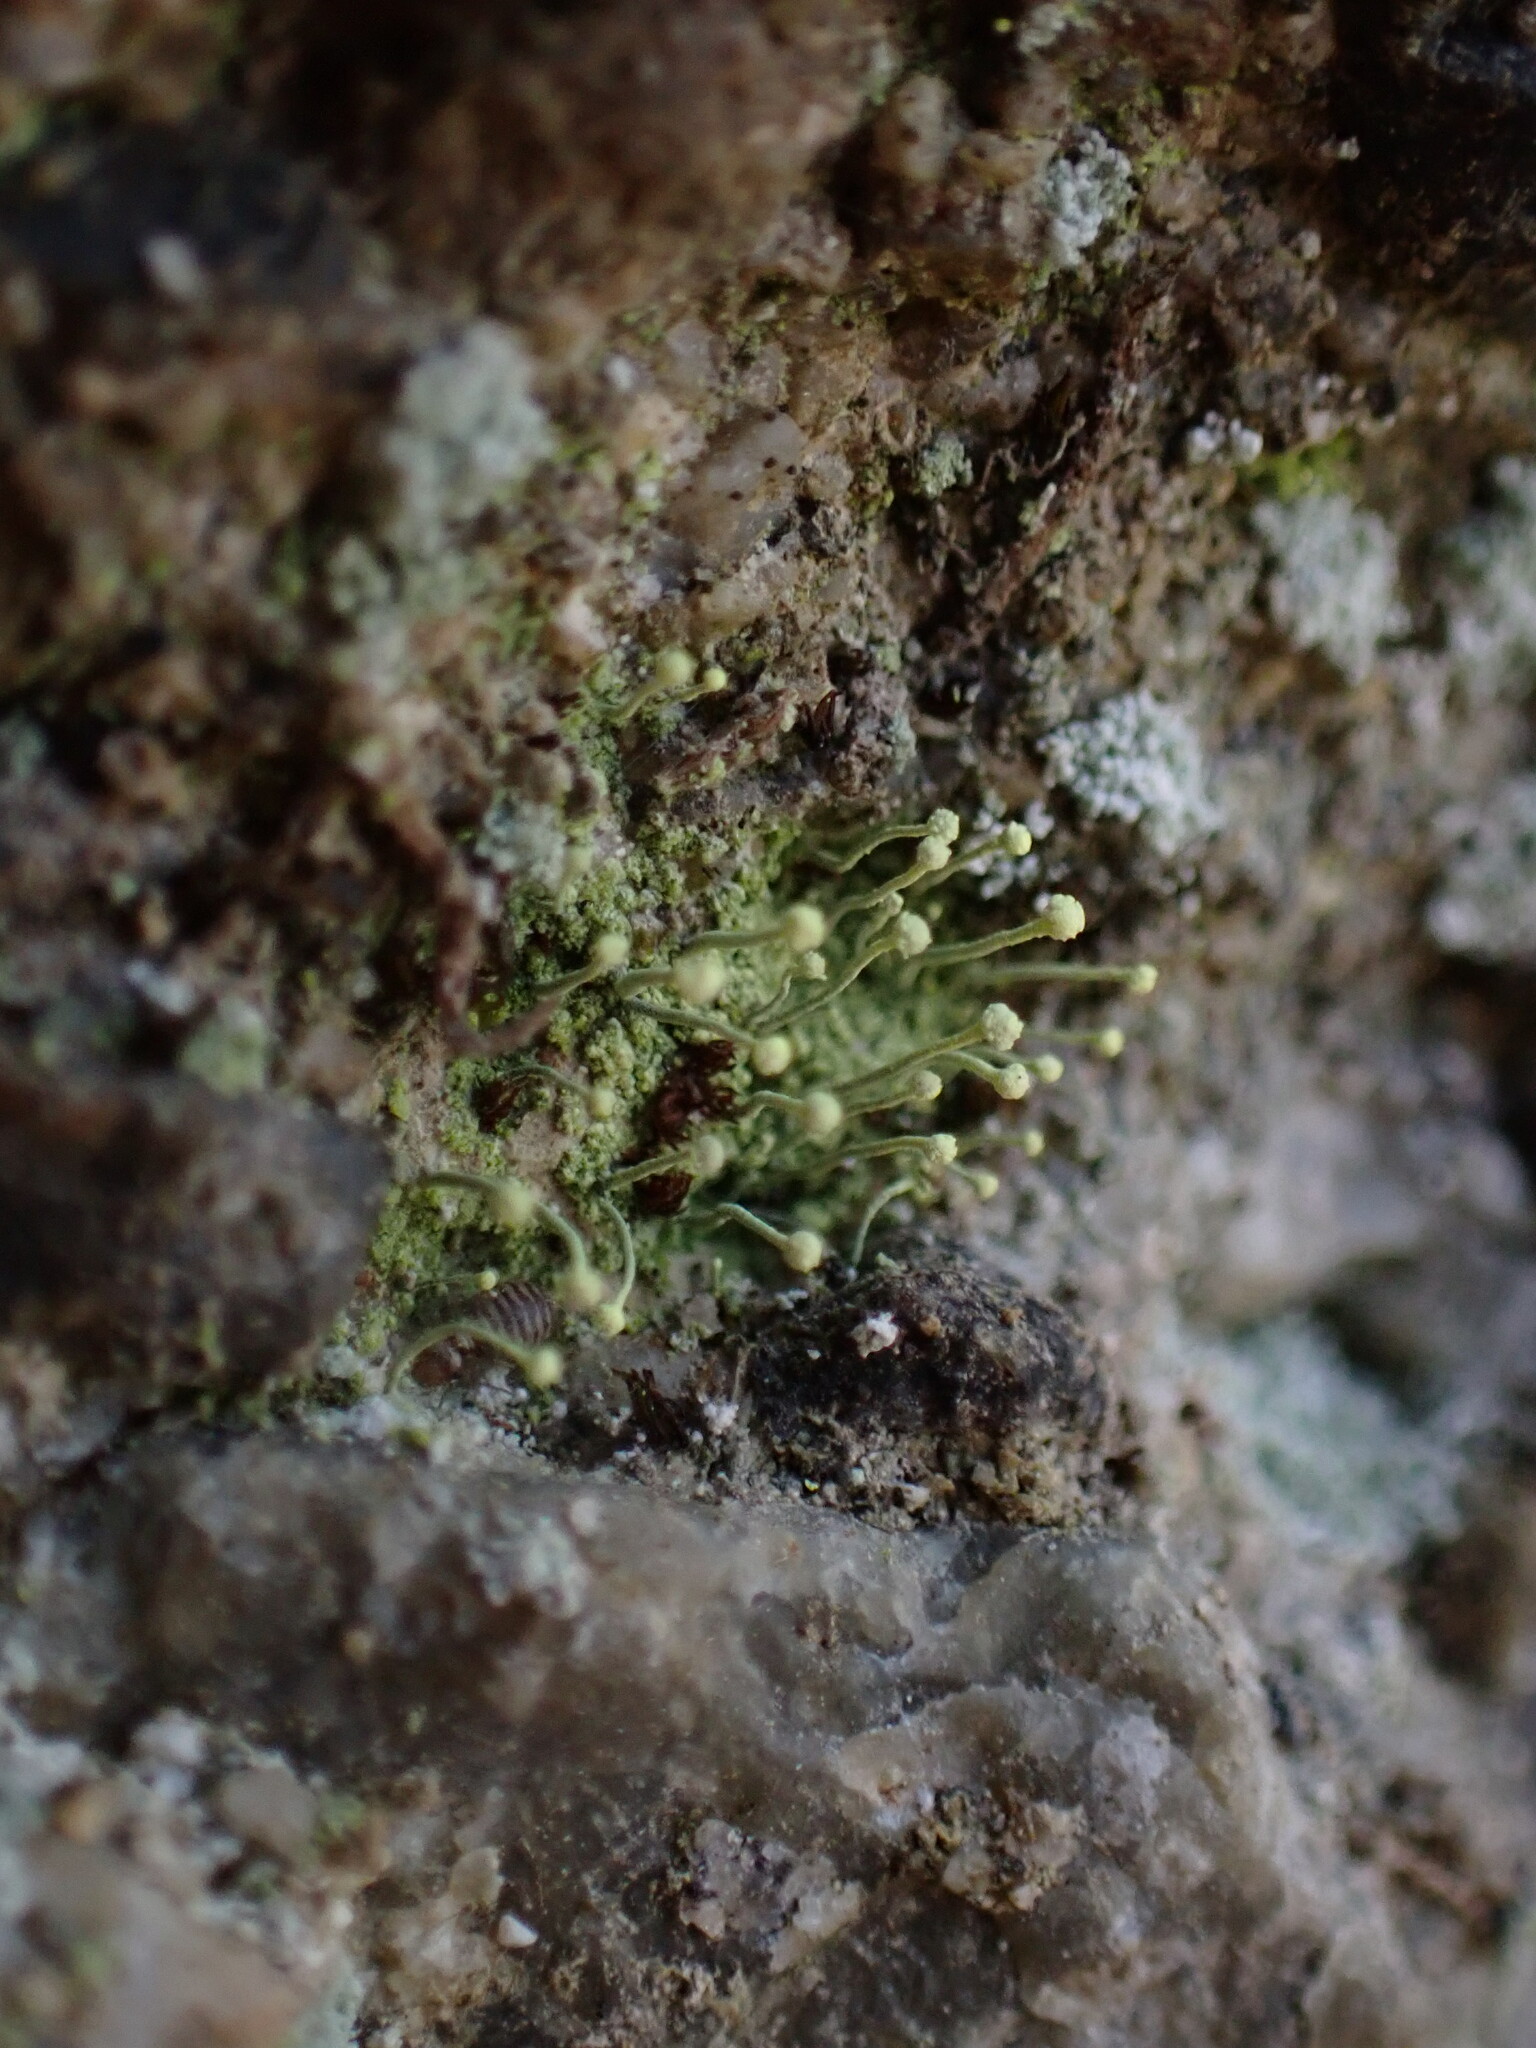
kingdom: Fungi
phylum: Ascomycota
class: Coniocybomycetes
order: Coniocybales
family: Coniocybaceae
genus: Chaenotheca
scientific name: Chaenotheca furfuracea
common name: Sulphur stubble lichen
